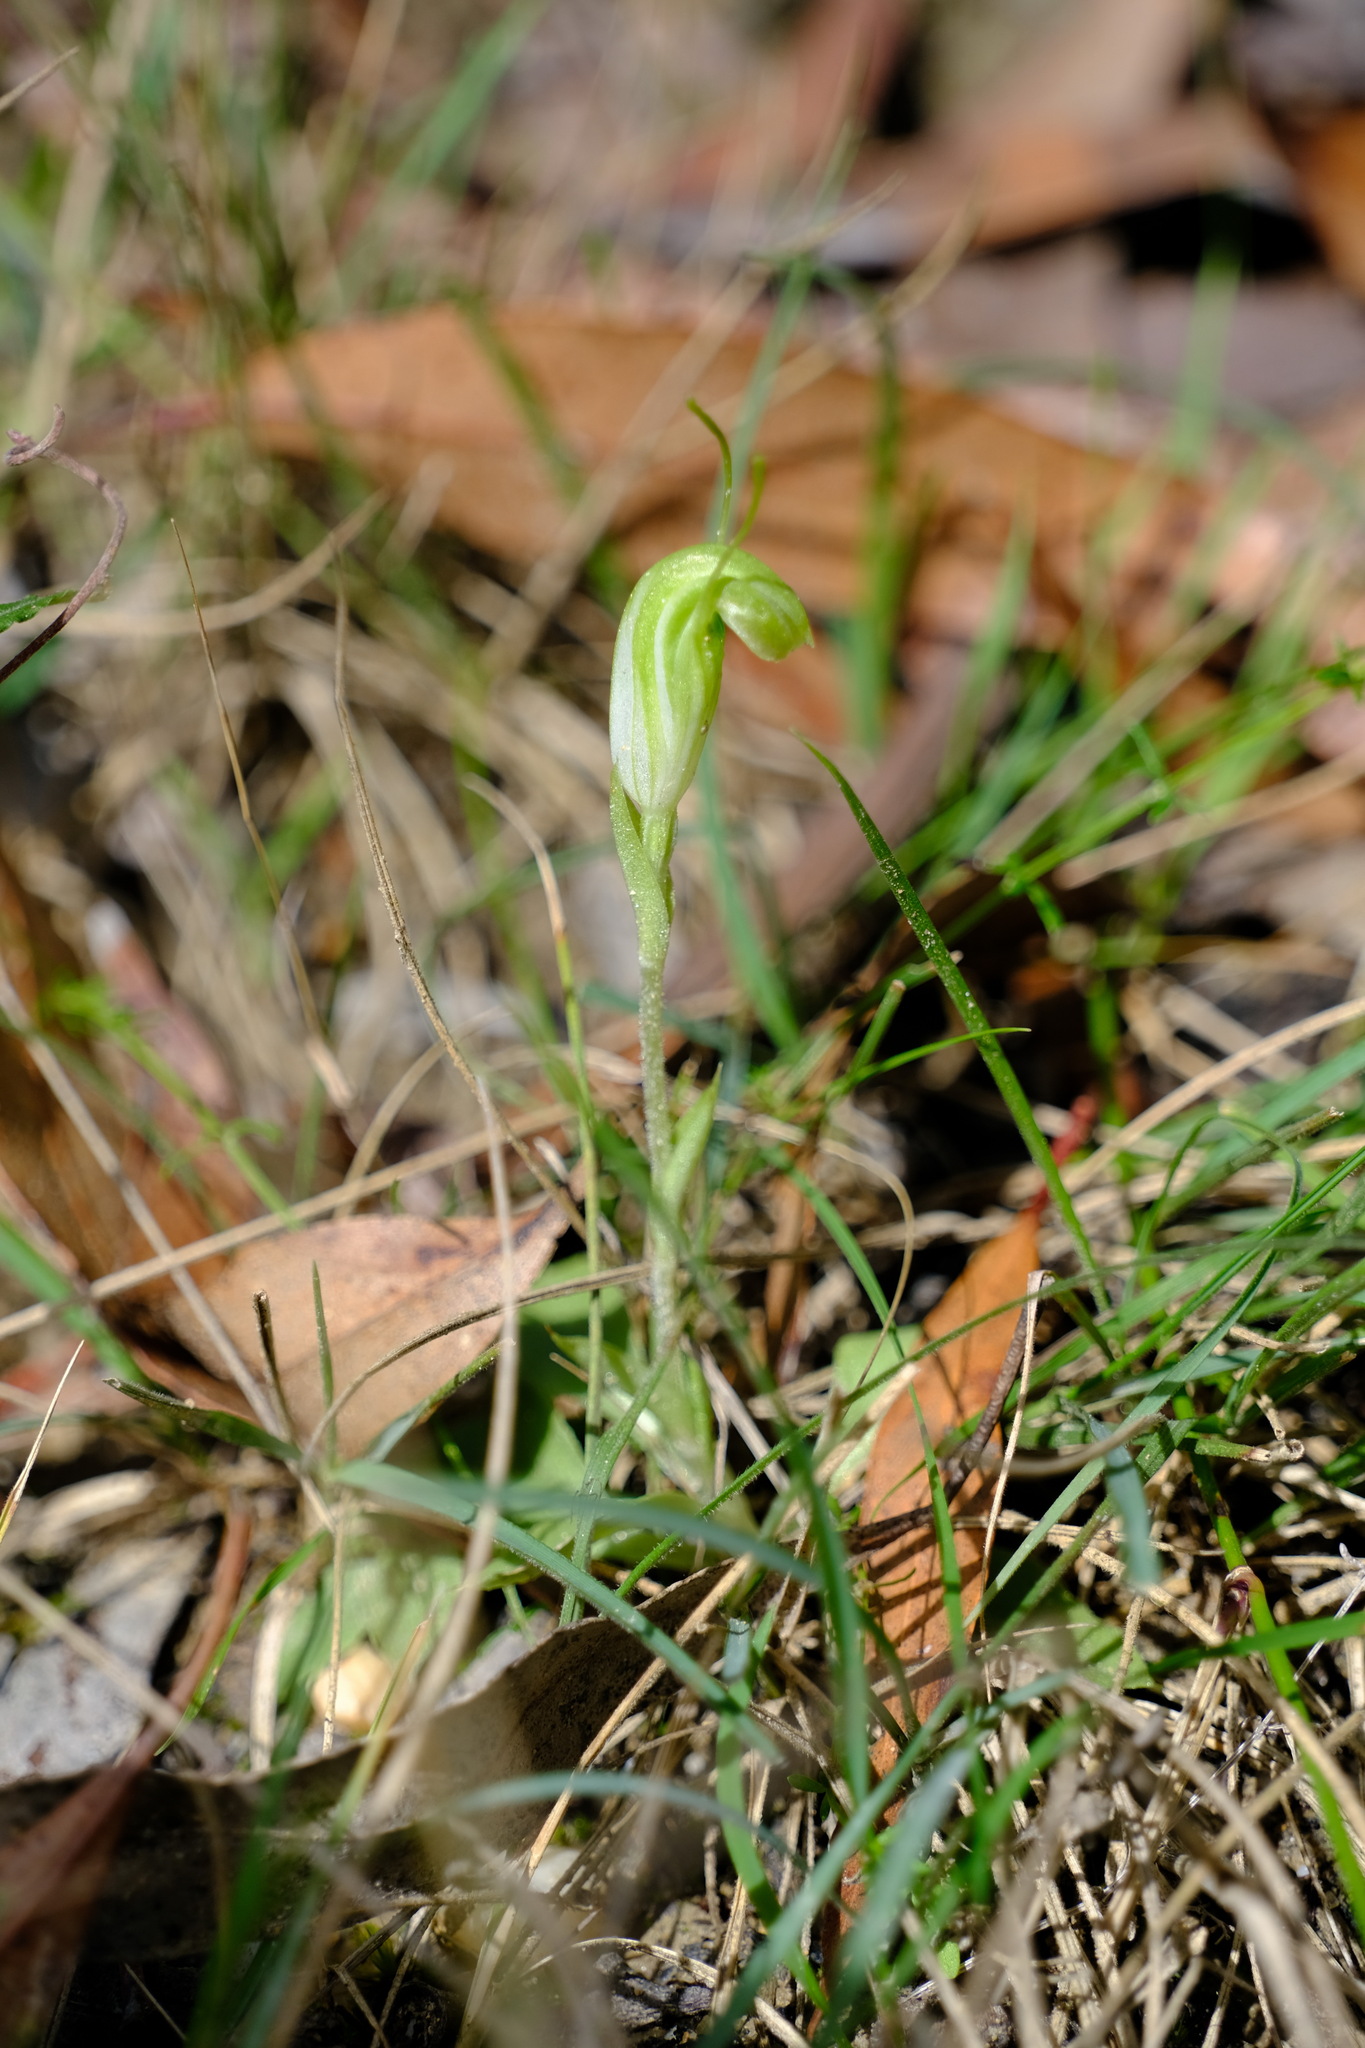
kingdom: Plantae
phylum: Tracheophyta
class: Liliopsida
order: Asparagales
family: Orchidaceae
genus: Pterostylis
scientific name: Pterostylis nana
